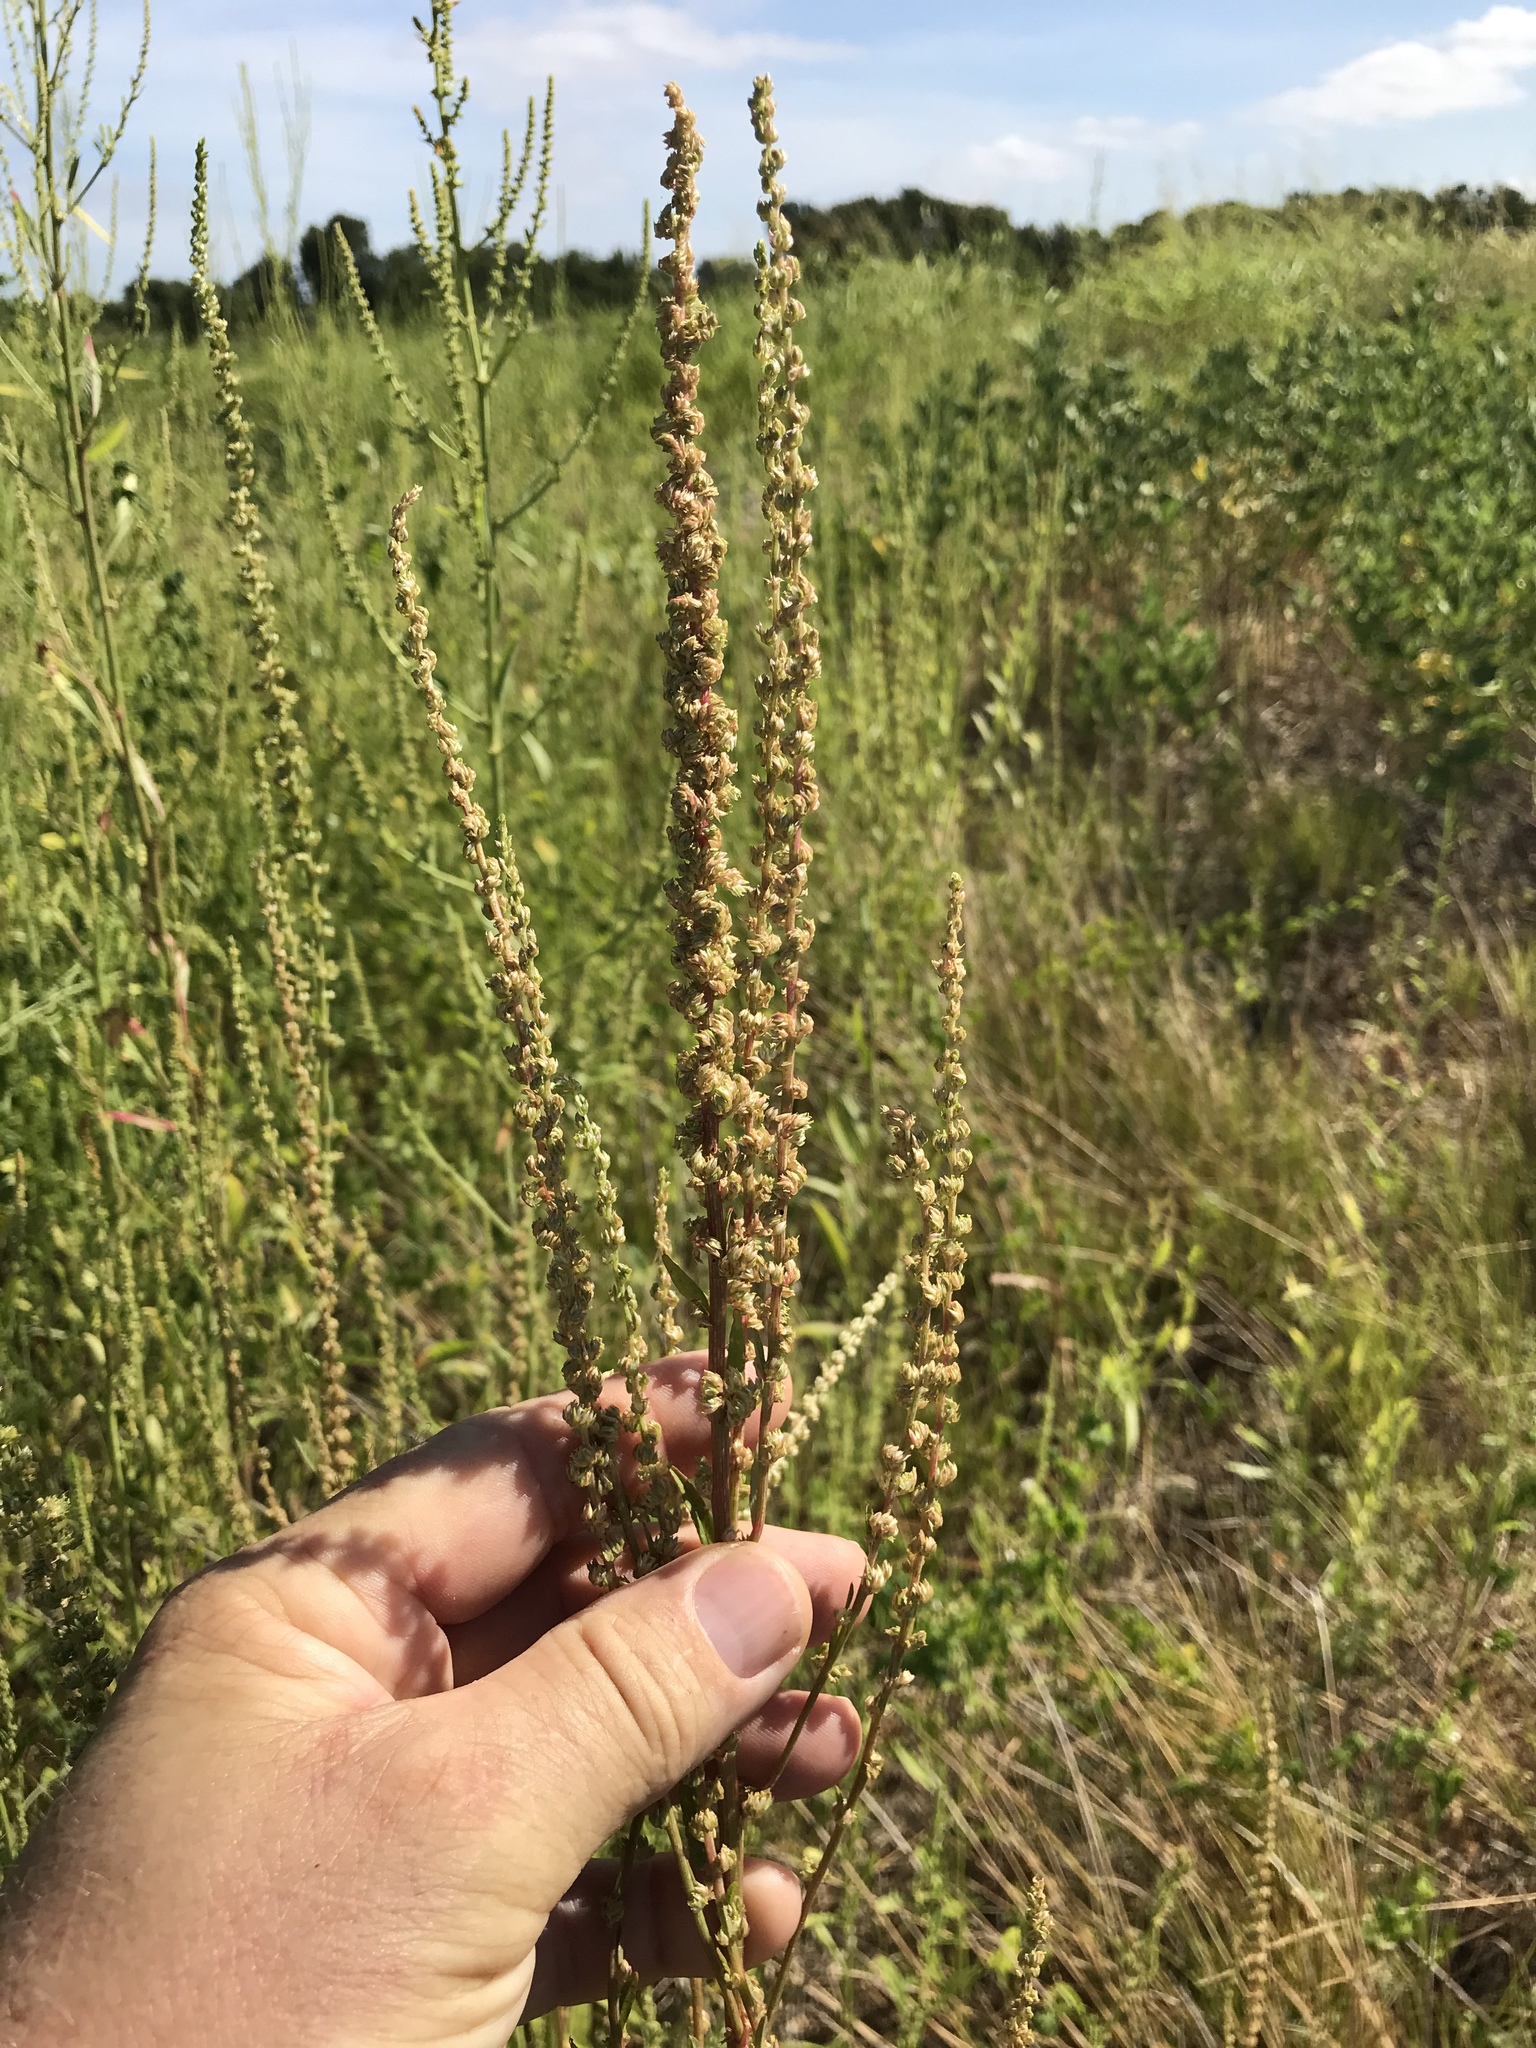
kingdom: Plantae
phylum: Tracheophyta
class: Magnoliopsida
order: Caryophyllales
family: Amaranthaceae
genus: Amaranthus
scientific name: Amaranthus palmeri
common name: Dioecious amaranth
